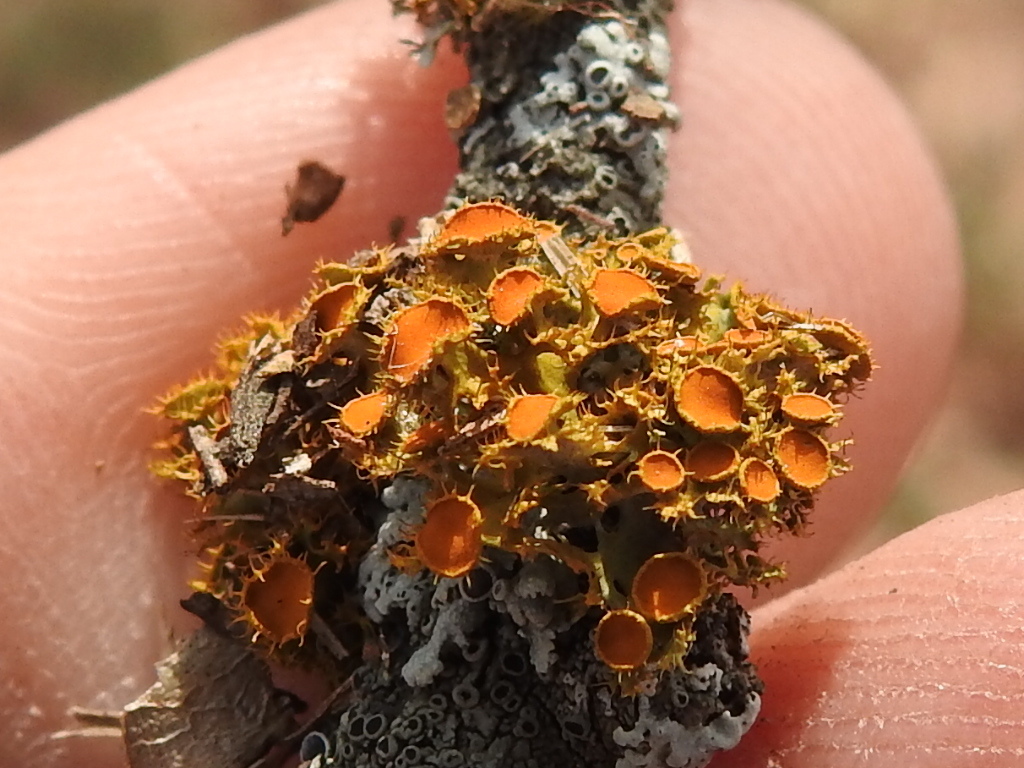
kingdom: Fungi
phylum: Ascomycota
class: Lecanoromycetes
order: Teloschistales
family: Teloschistaceae
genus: Niorma
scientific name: Niorma chrysophthalma
